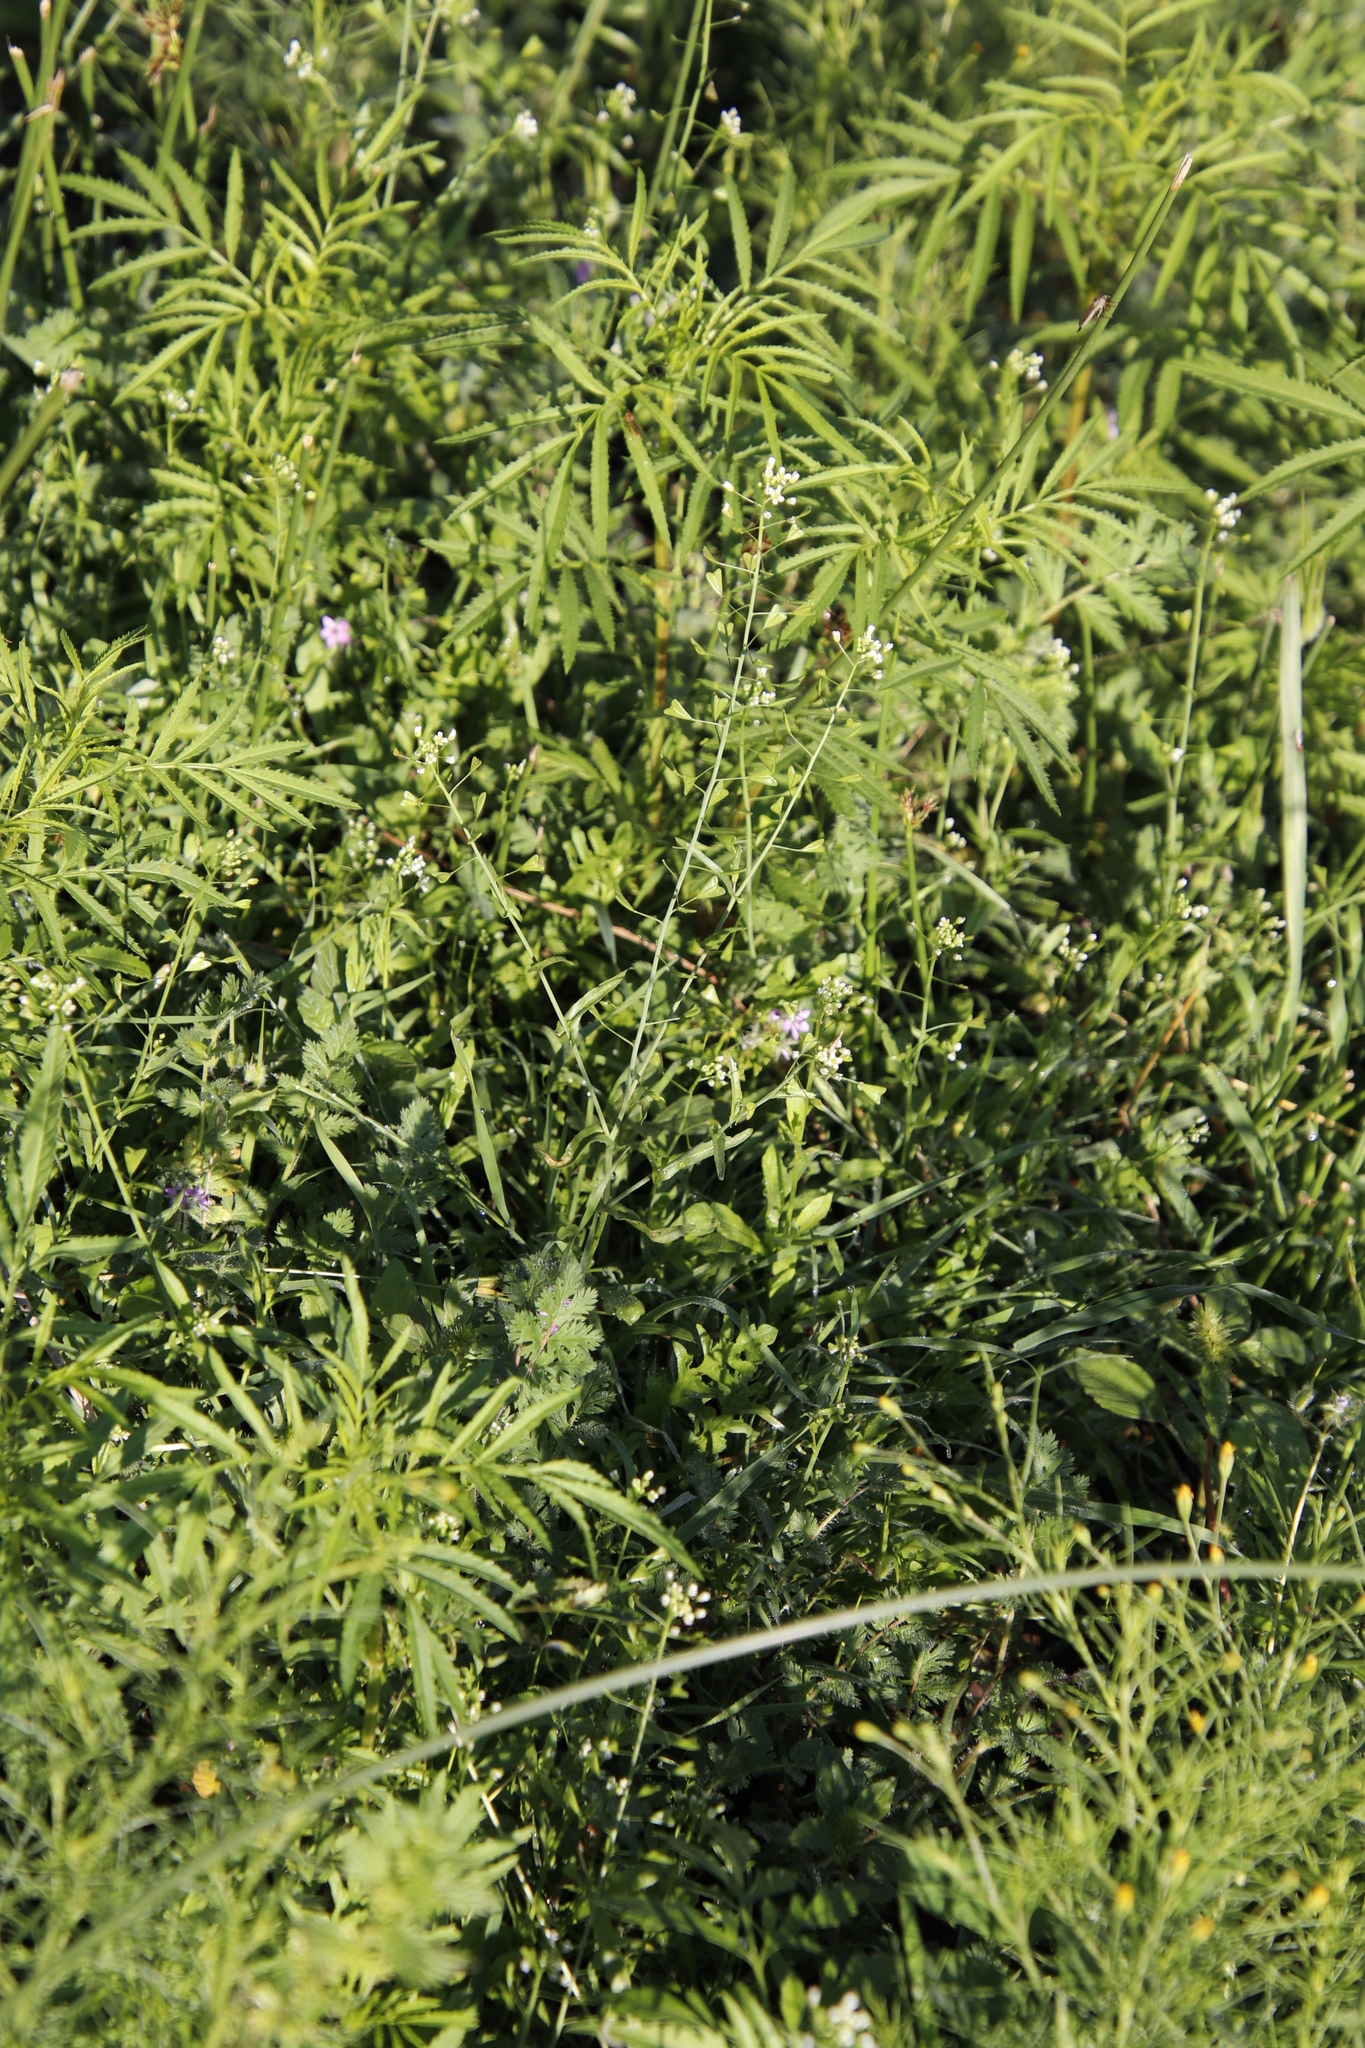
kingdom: Plantae
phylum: Tracheophyta
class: Magnoliopsida
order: Brassicales
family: Brassicaceae
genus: Capsella
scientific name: Capsella bursa-pastoris
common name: Shepherd's purse
